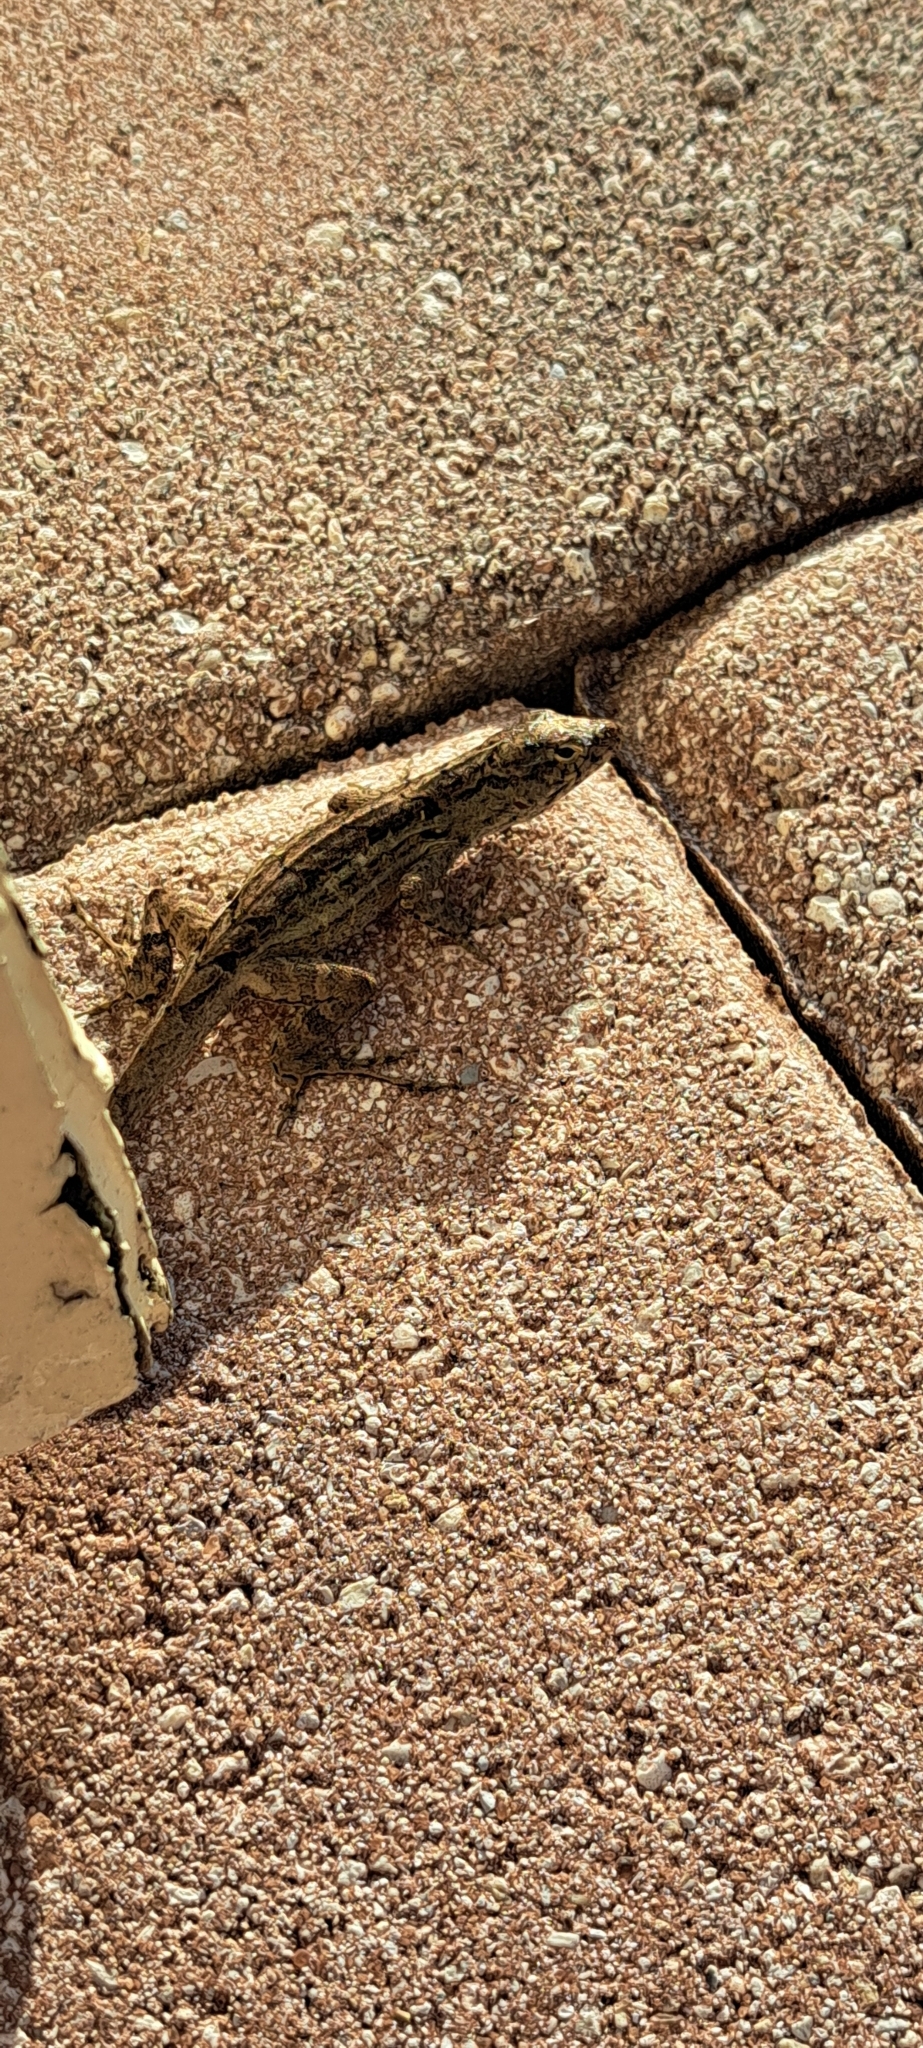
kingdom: Animalia
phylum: Chordata
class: Squamata
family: Dactyloidae
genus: Anolis
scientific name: Anolis sagrei
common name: Brown anole
